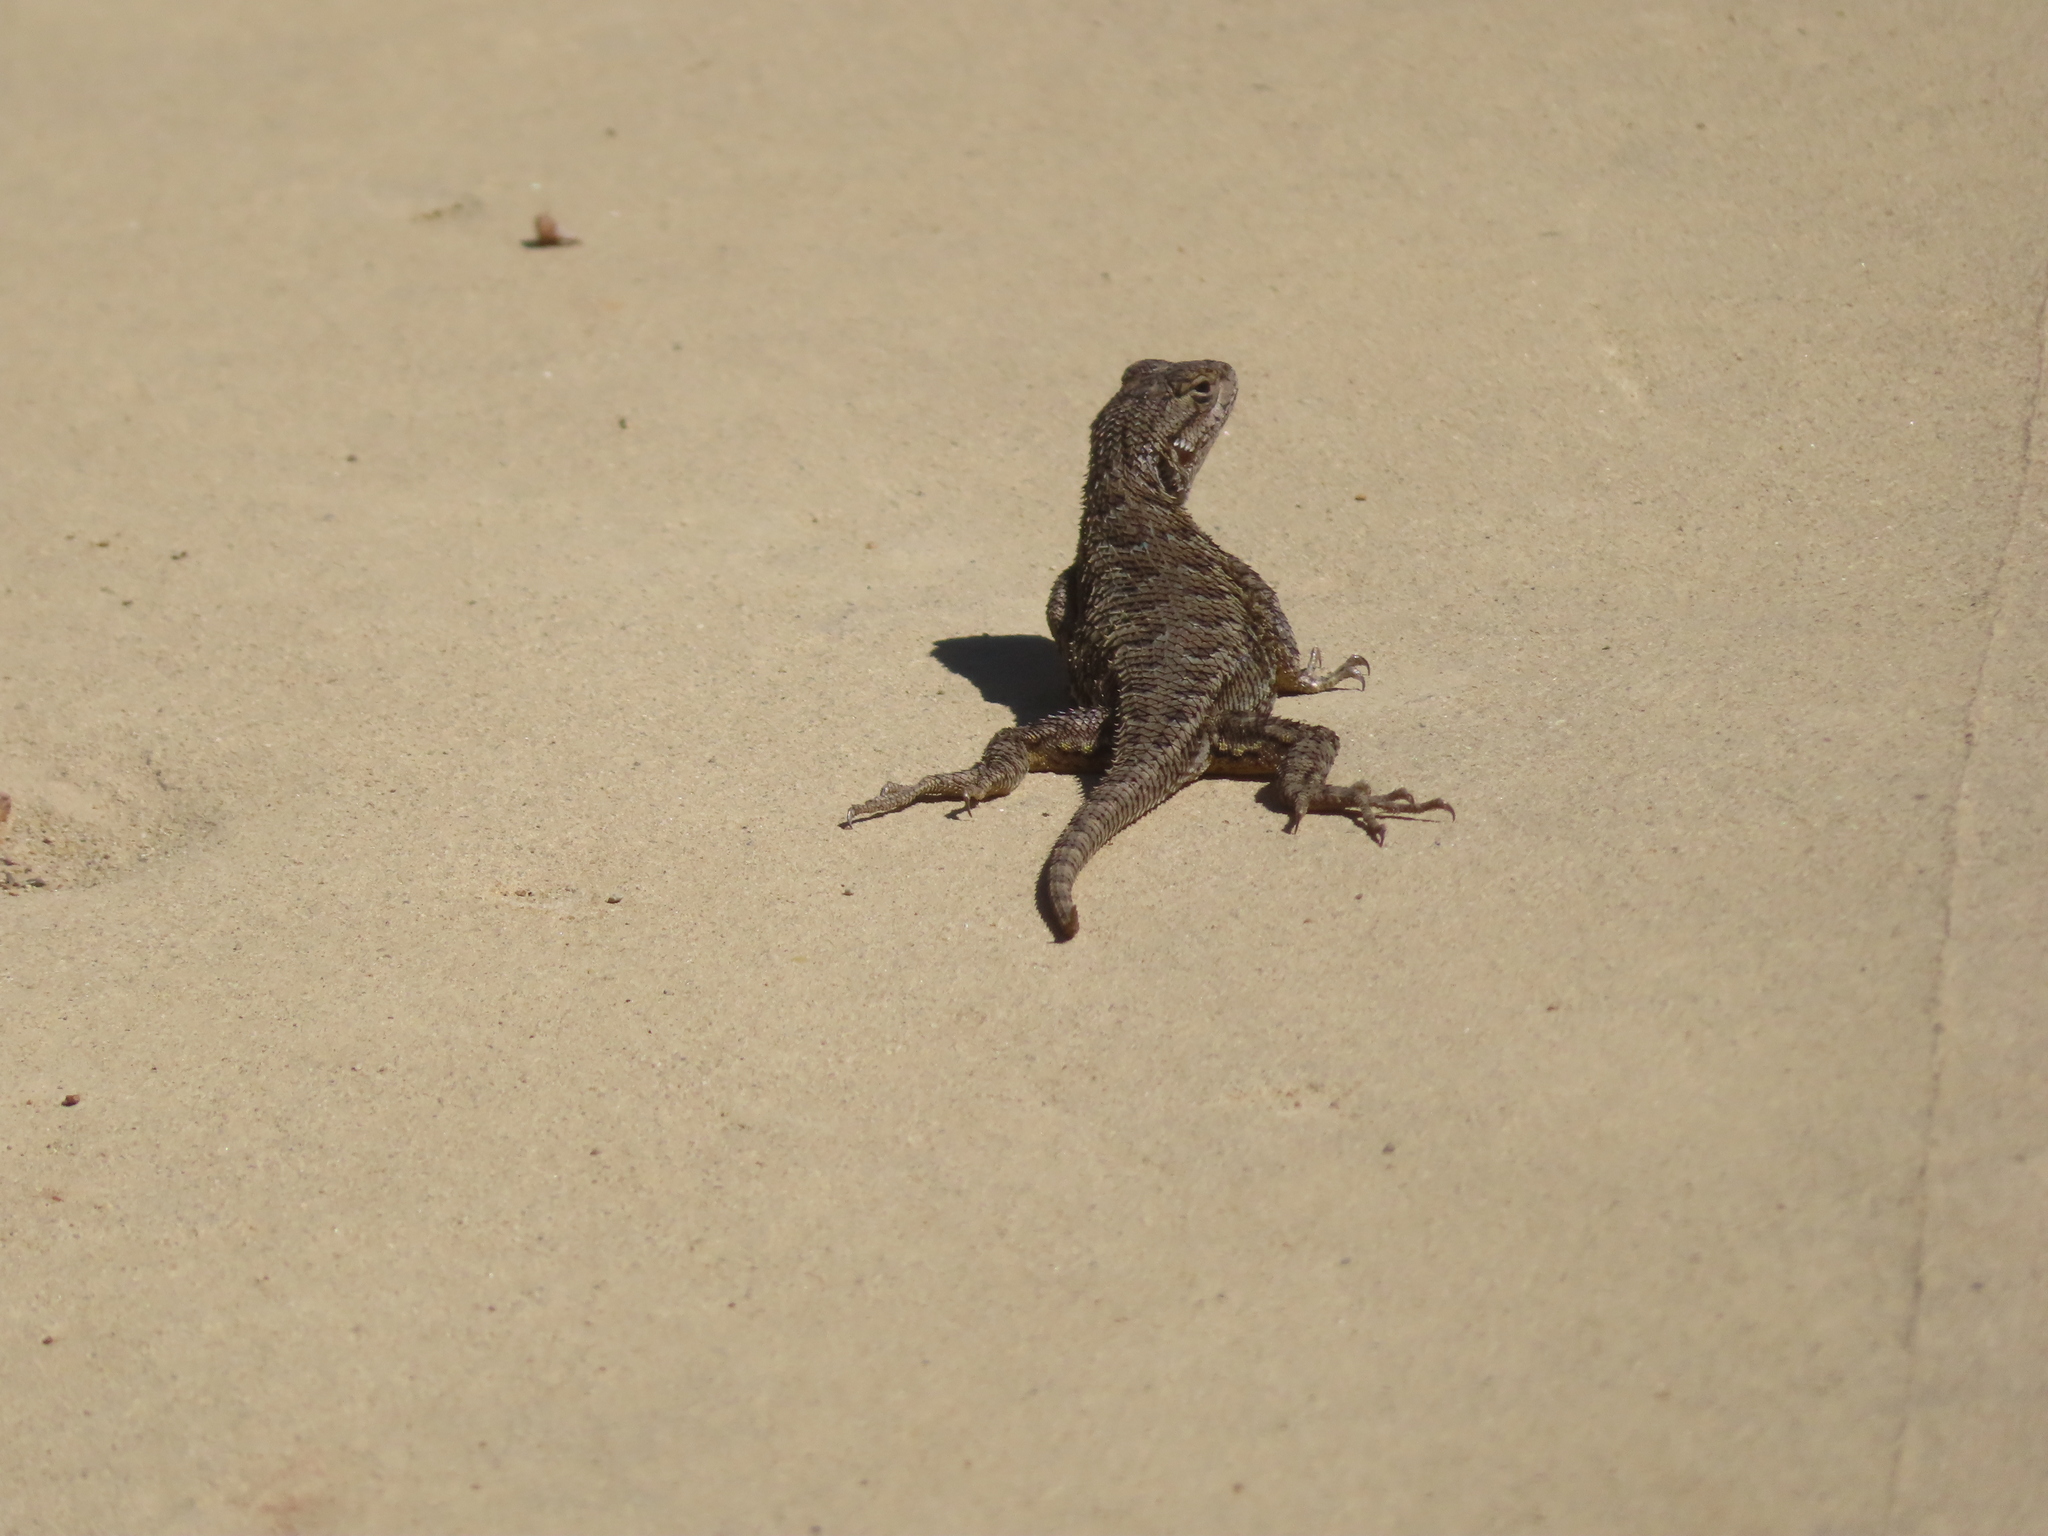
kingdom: Animalia
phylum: Chordata
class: Squamata
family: Phrynosomatidae
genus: Sceloporus
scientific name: Sceloporus occidentalis
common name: Western fence lizard
